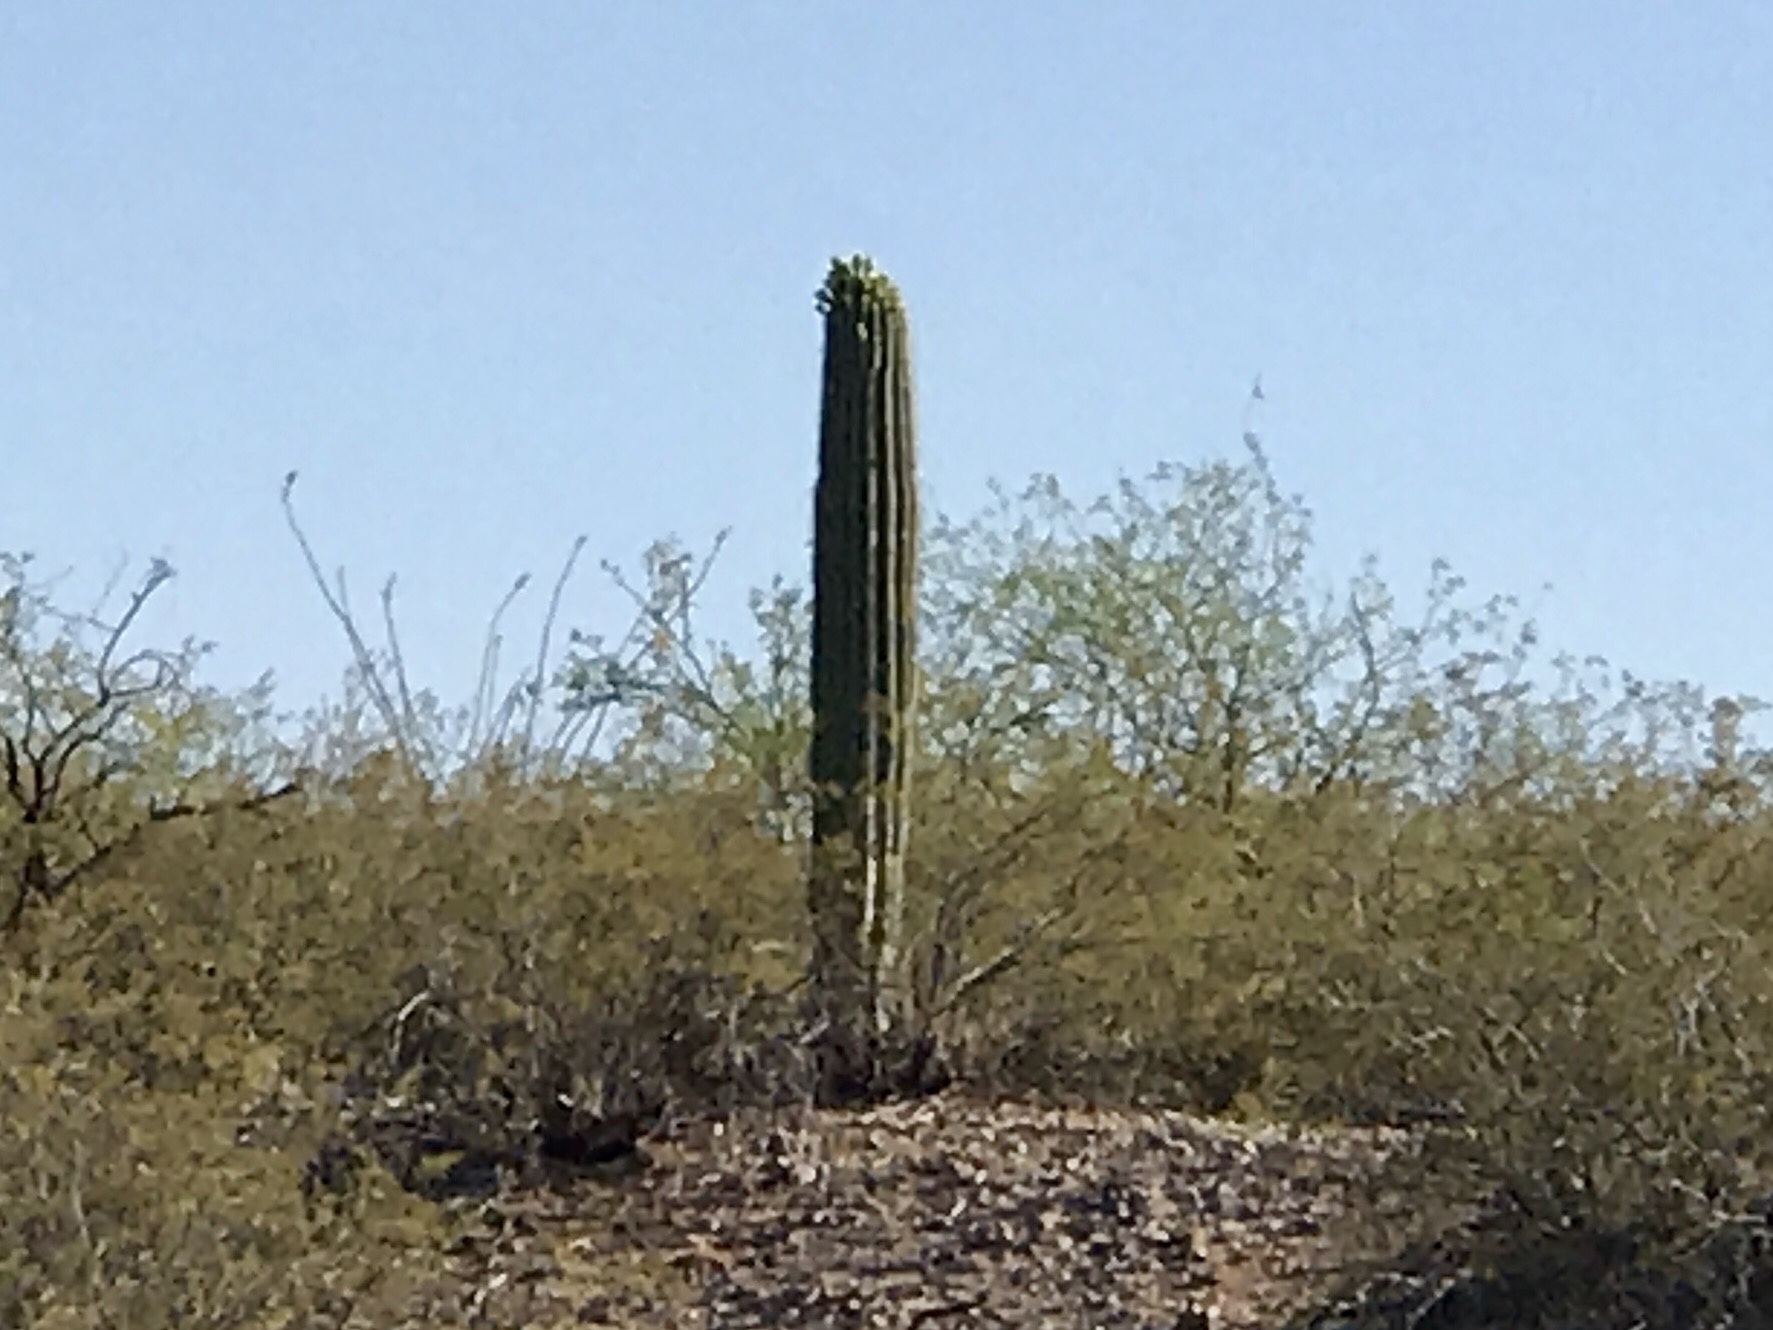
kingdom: Plantae
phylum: Tracheophyta
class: Magnoliopsida
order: Caryophyllales
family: Cactaceae
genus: Carnegiea
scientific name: Carnegiea gigantea
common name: Saguaro
